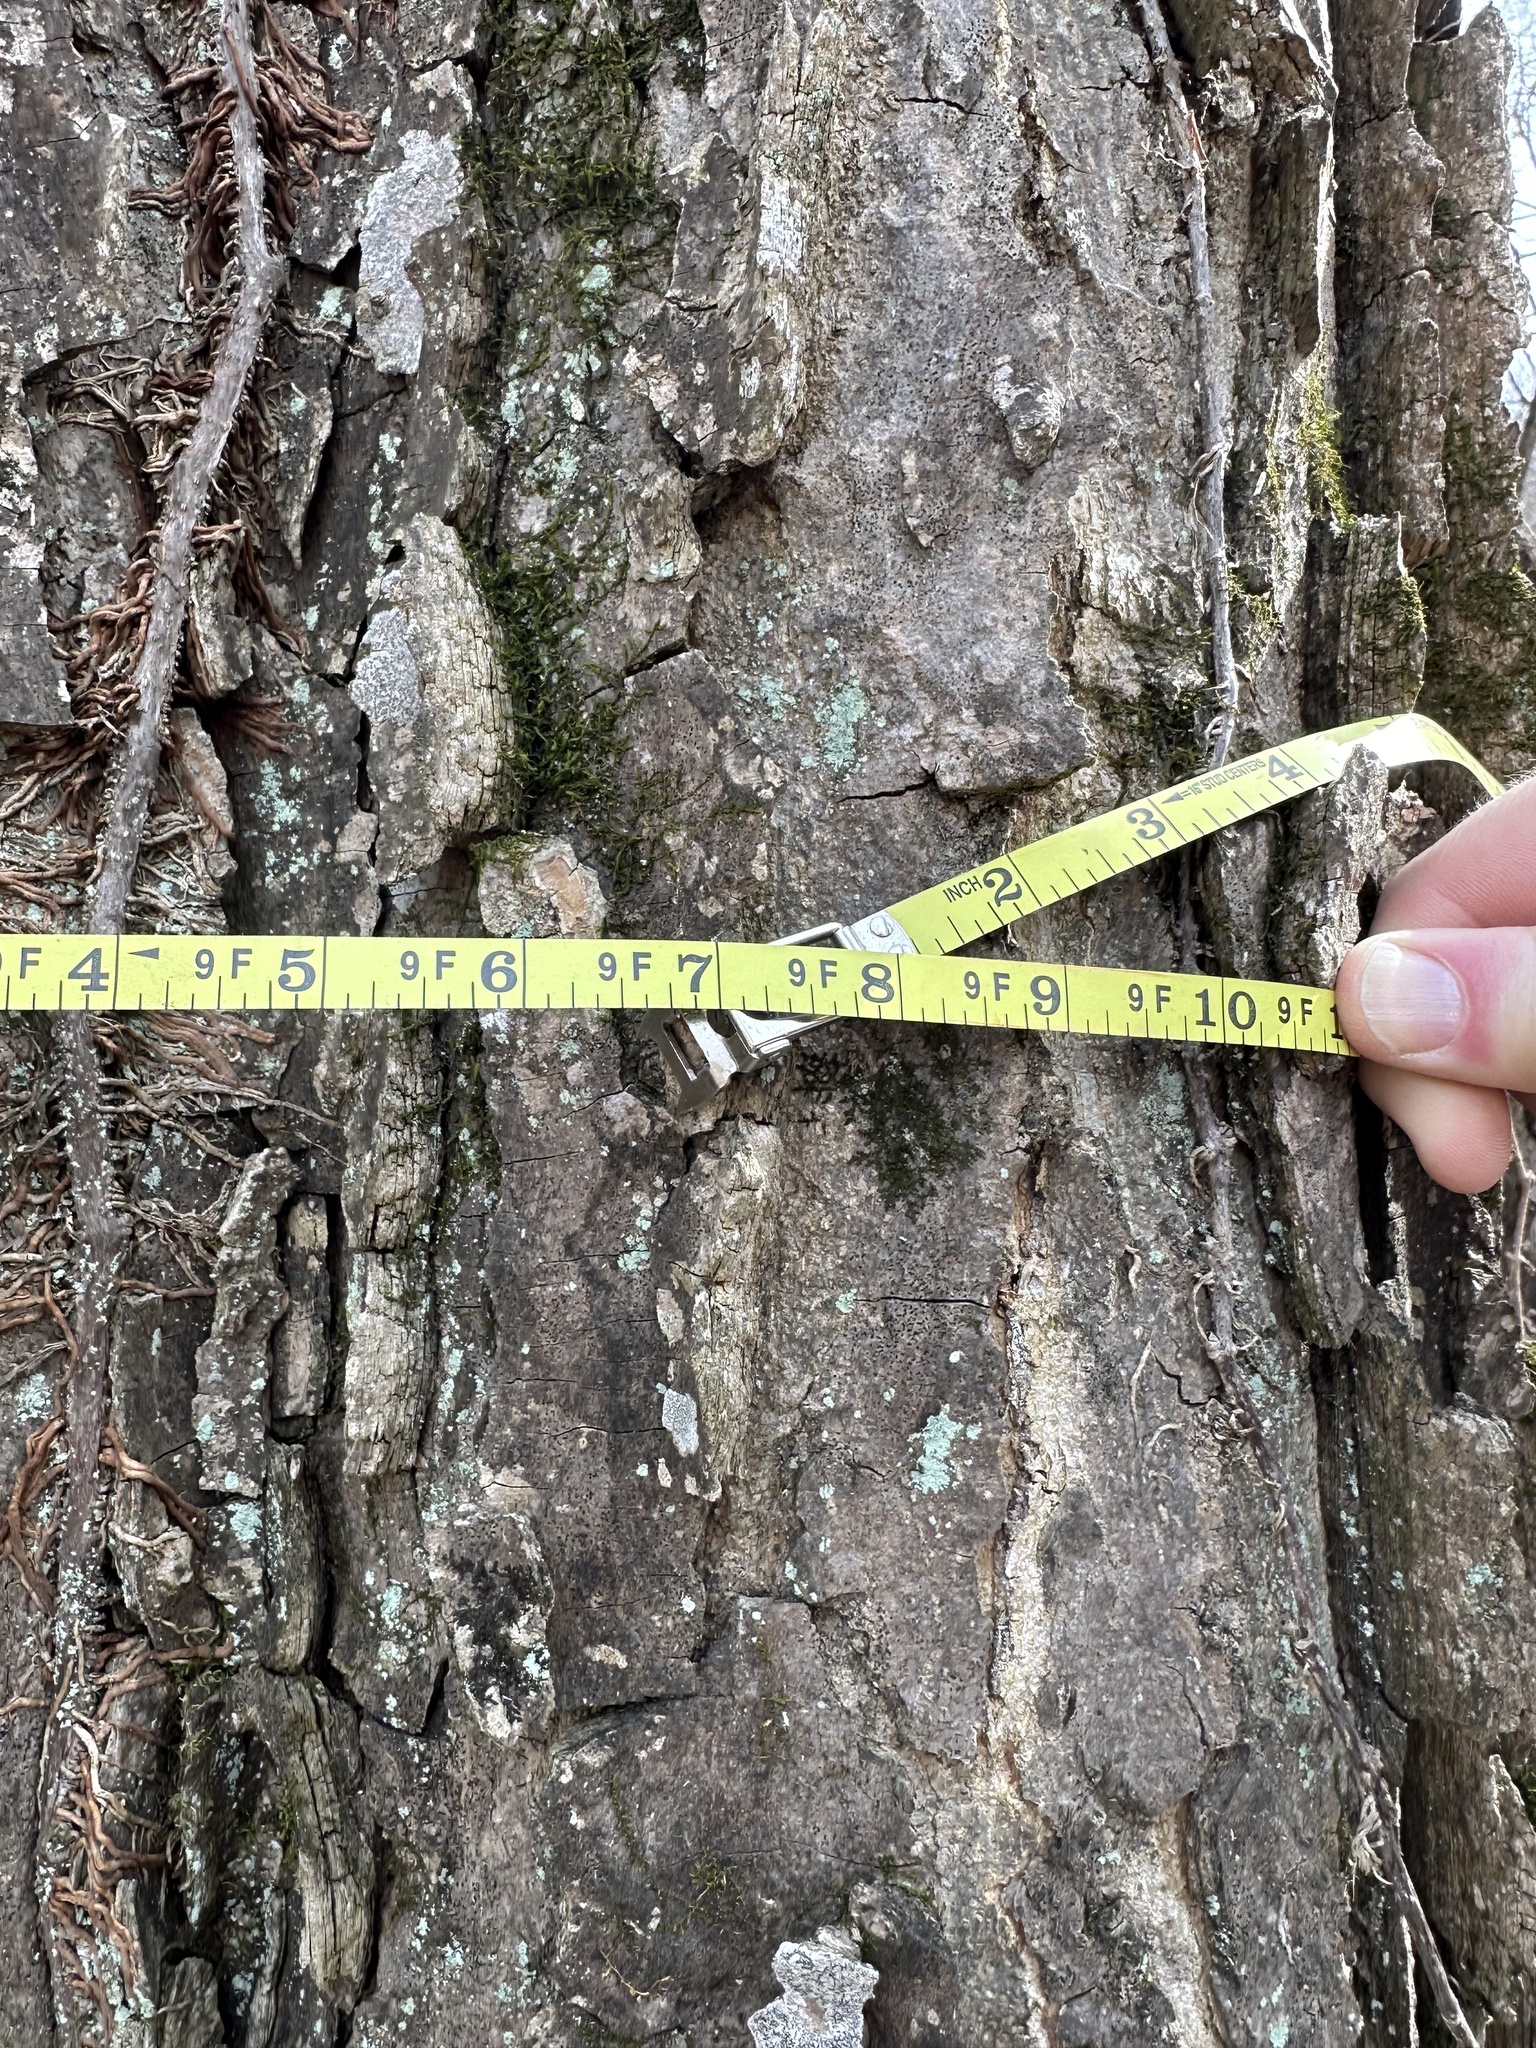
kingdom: Plantae
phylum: Tracheophyta
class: Magnoliopsida
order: Rosales
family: Cannabaceae
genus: Celtis
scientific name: Celtis occidentalis
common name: Common hackberry
